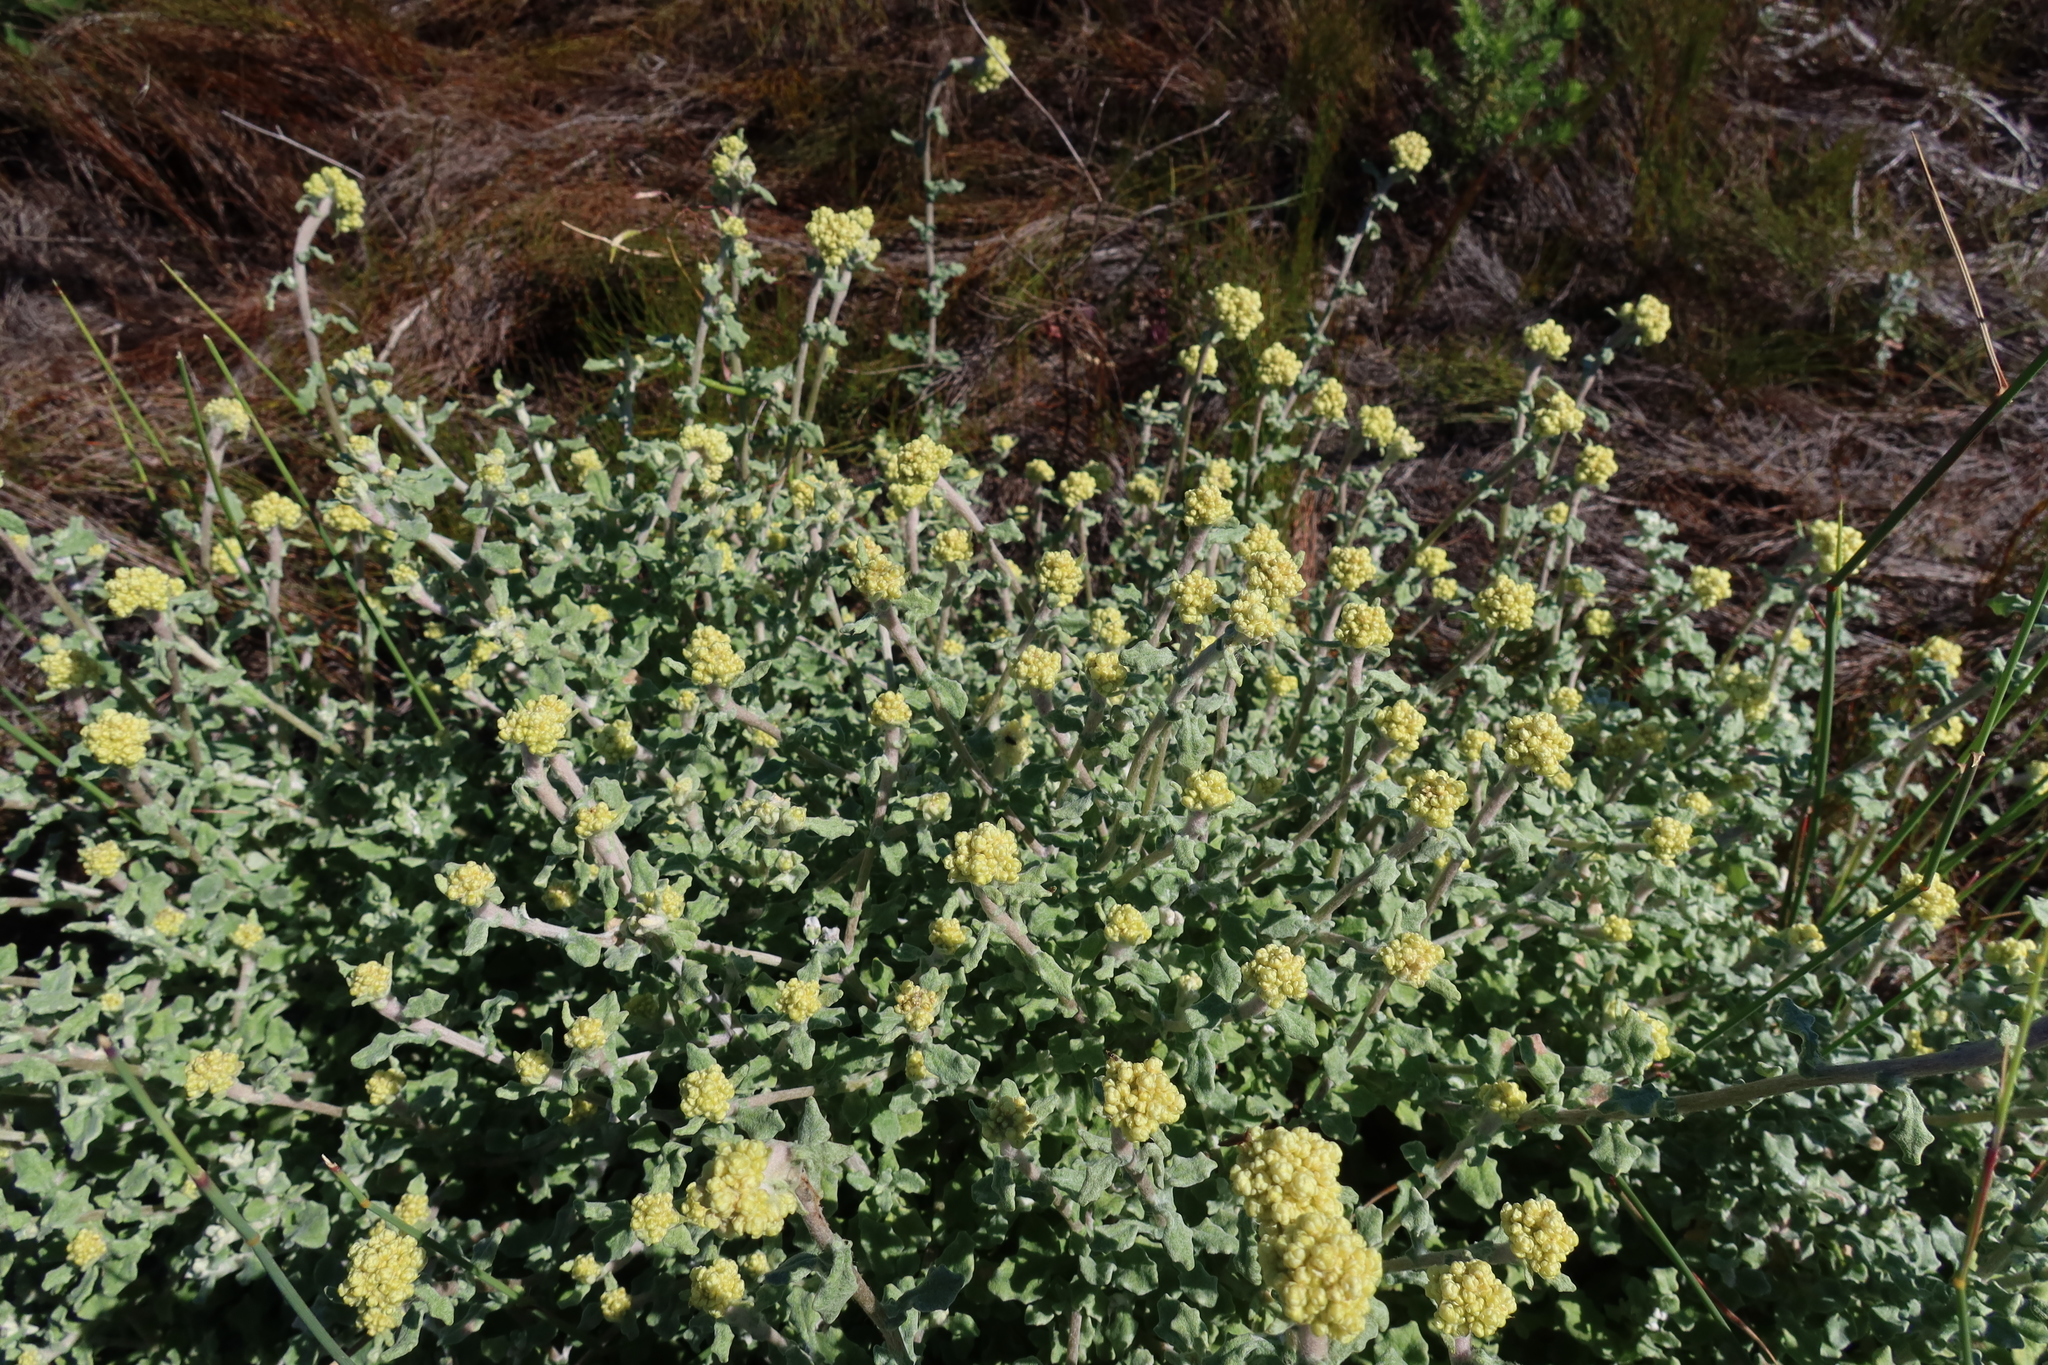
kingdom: Plantae
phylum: Tracheophyta
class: Magnoliopsida
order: Asterales
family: Asteraceae
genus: Helichrysum
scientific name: Helichrysum pandurifolium
